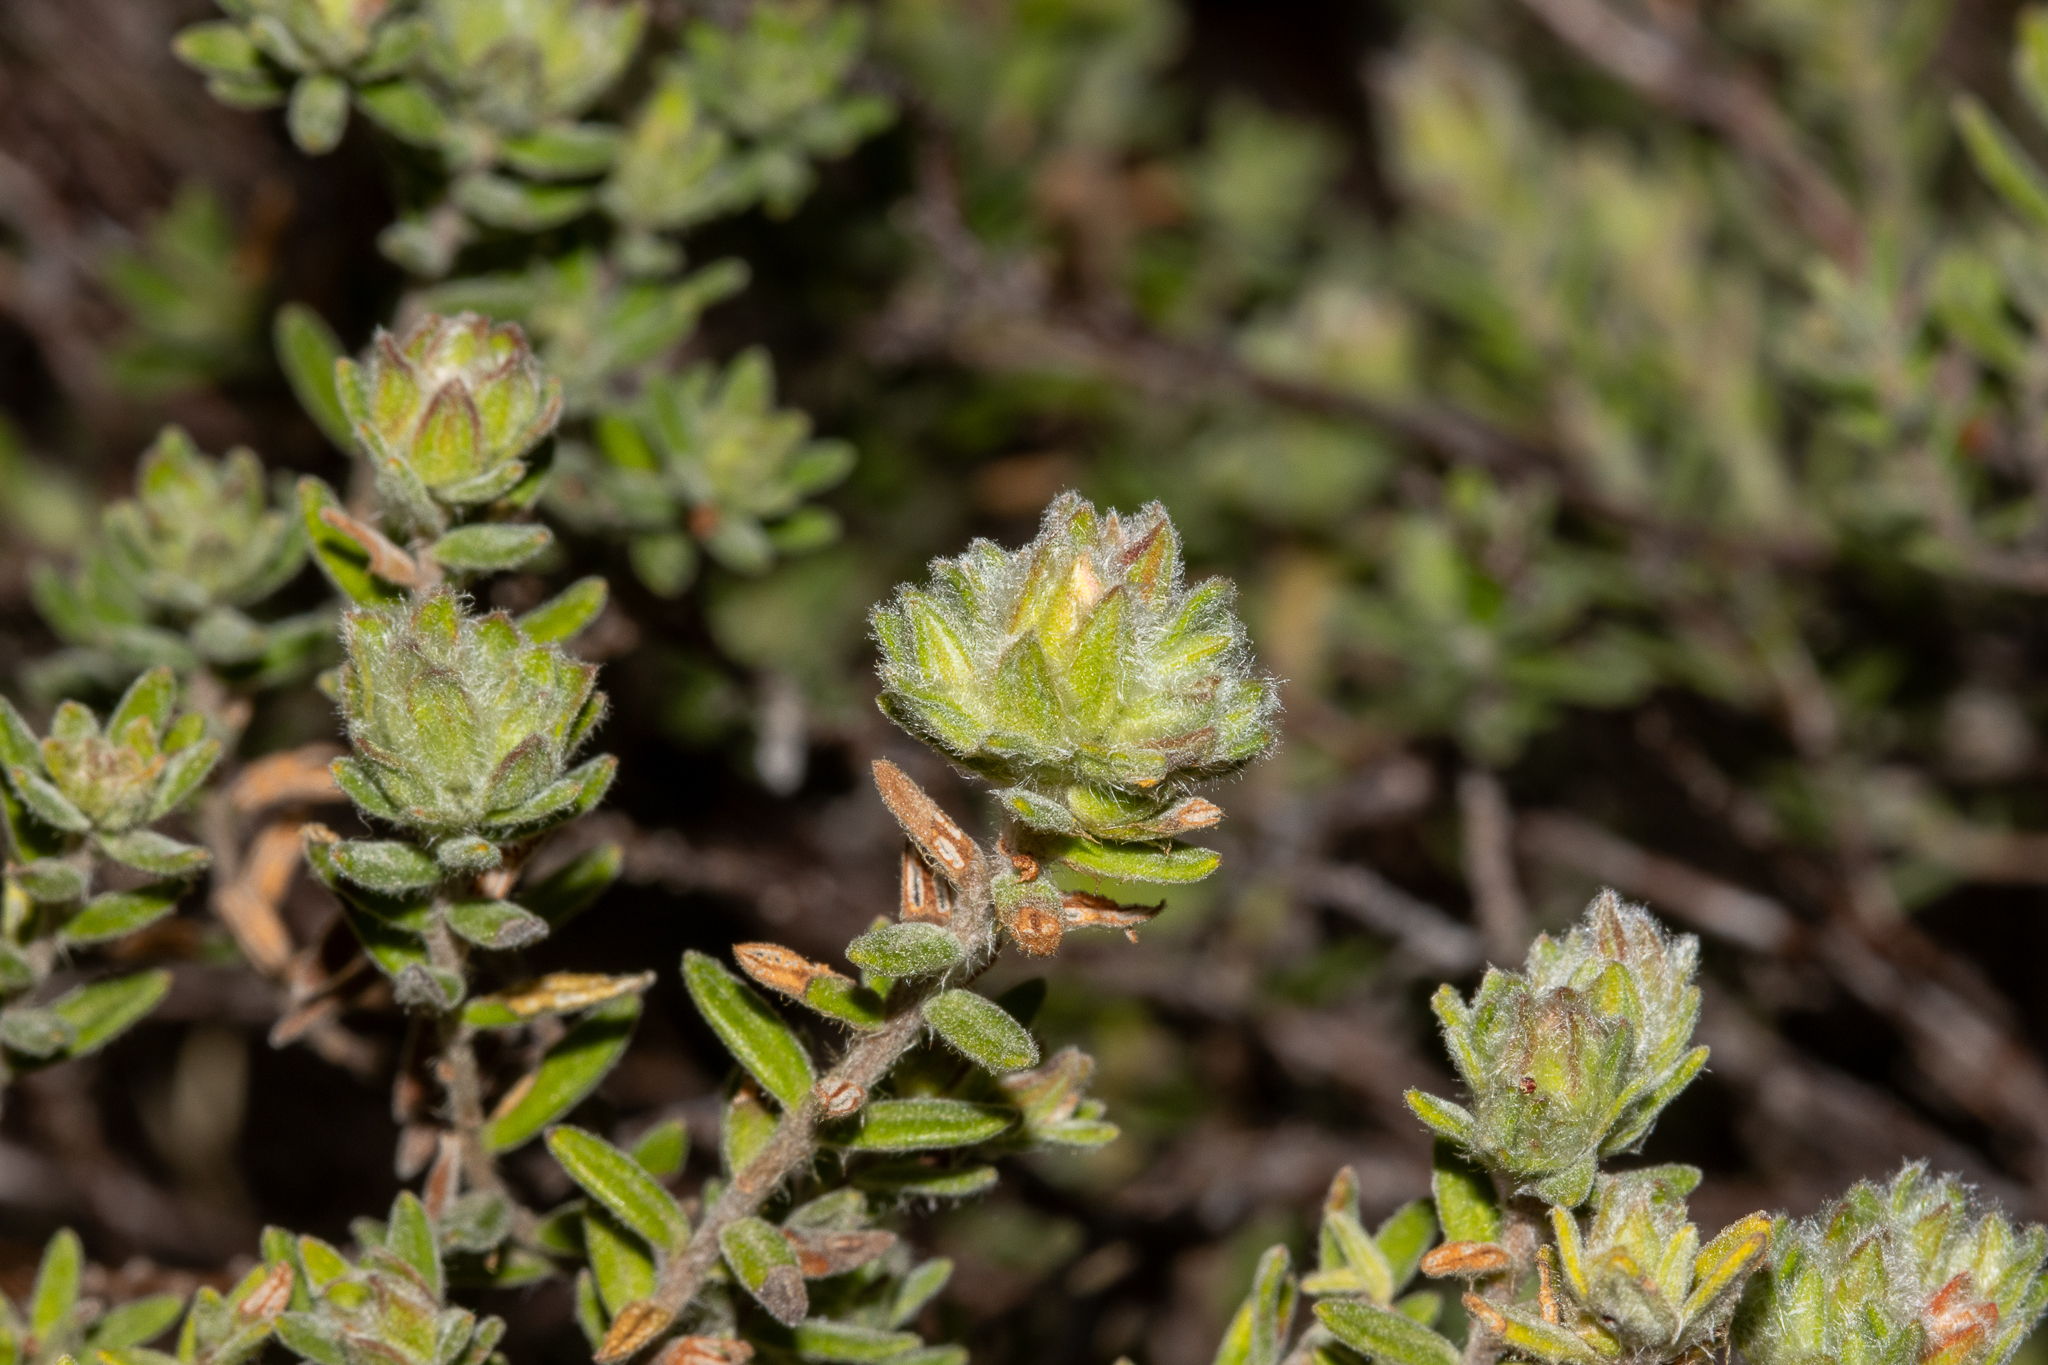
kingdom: Plantae
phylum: Tracheophyta
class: Magnoliopsida
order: Dilleniales
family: Dilleniaceae
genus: Hibbertia
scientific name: Hibbertia crinita
